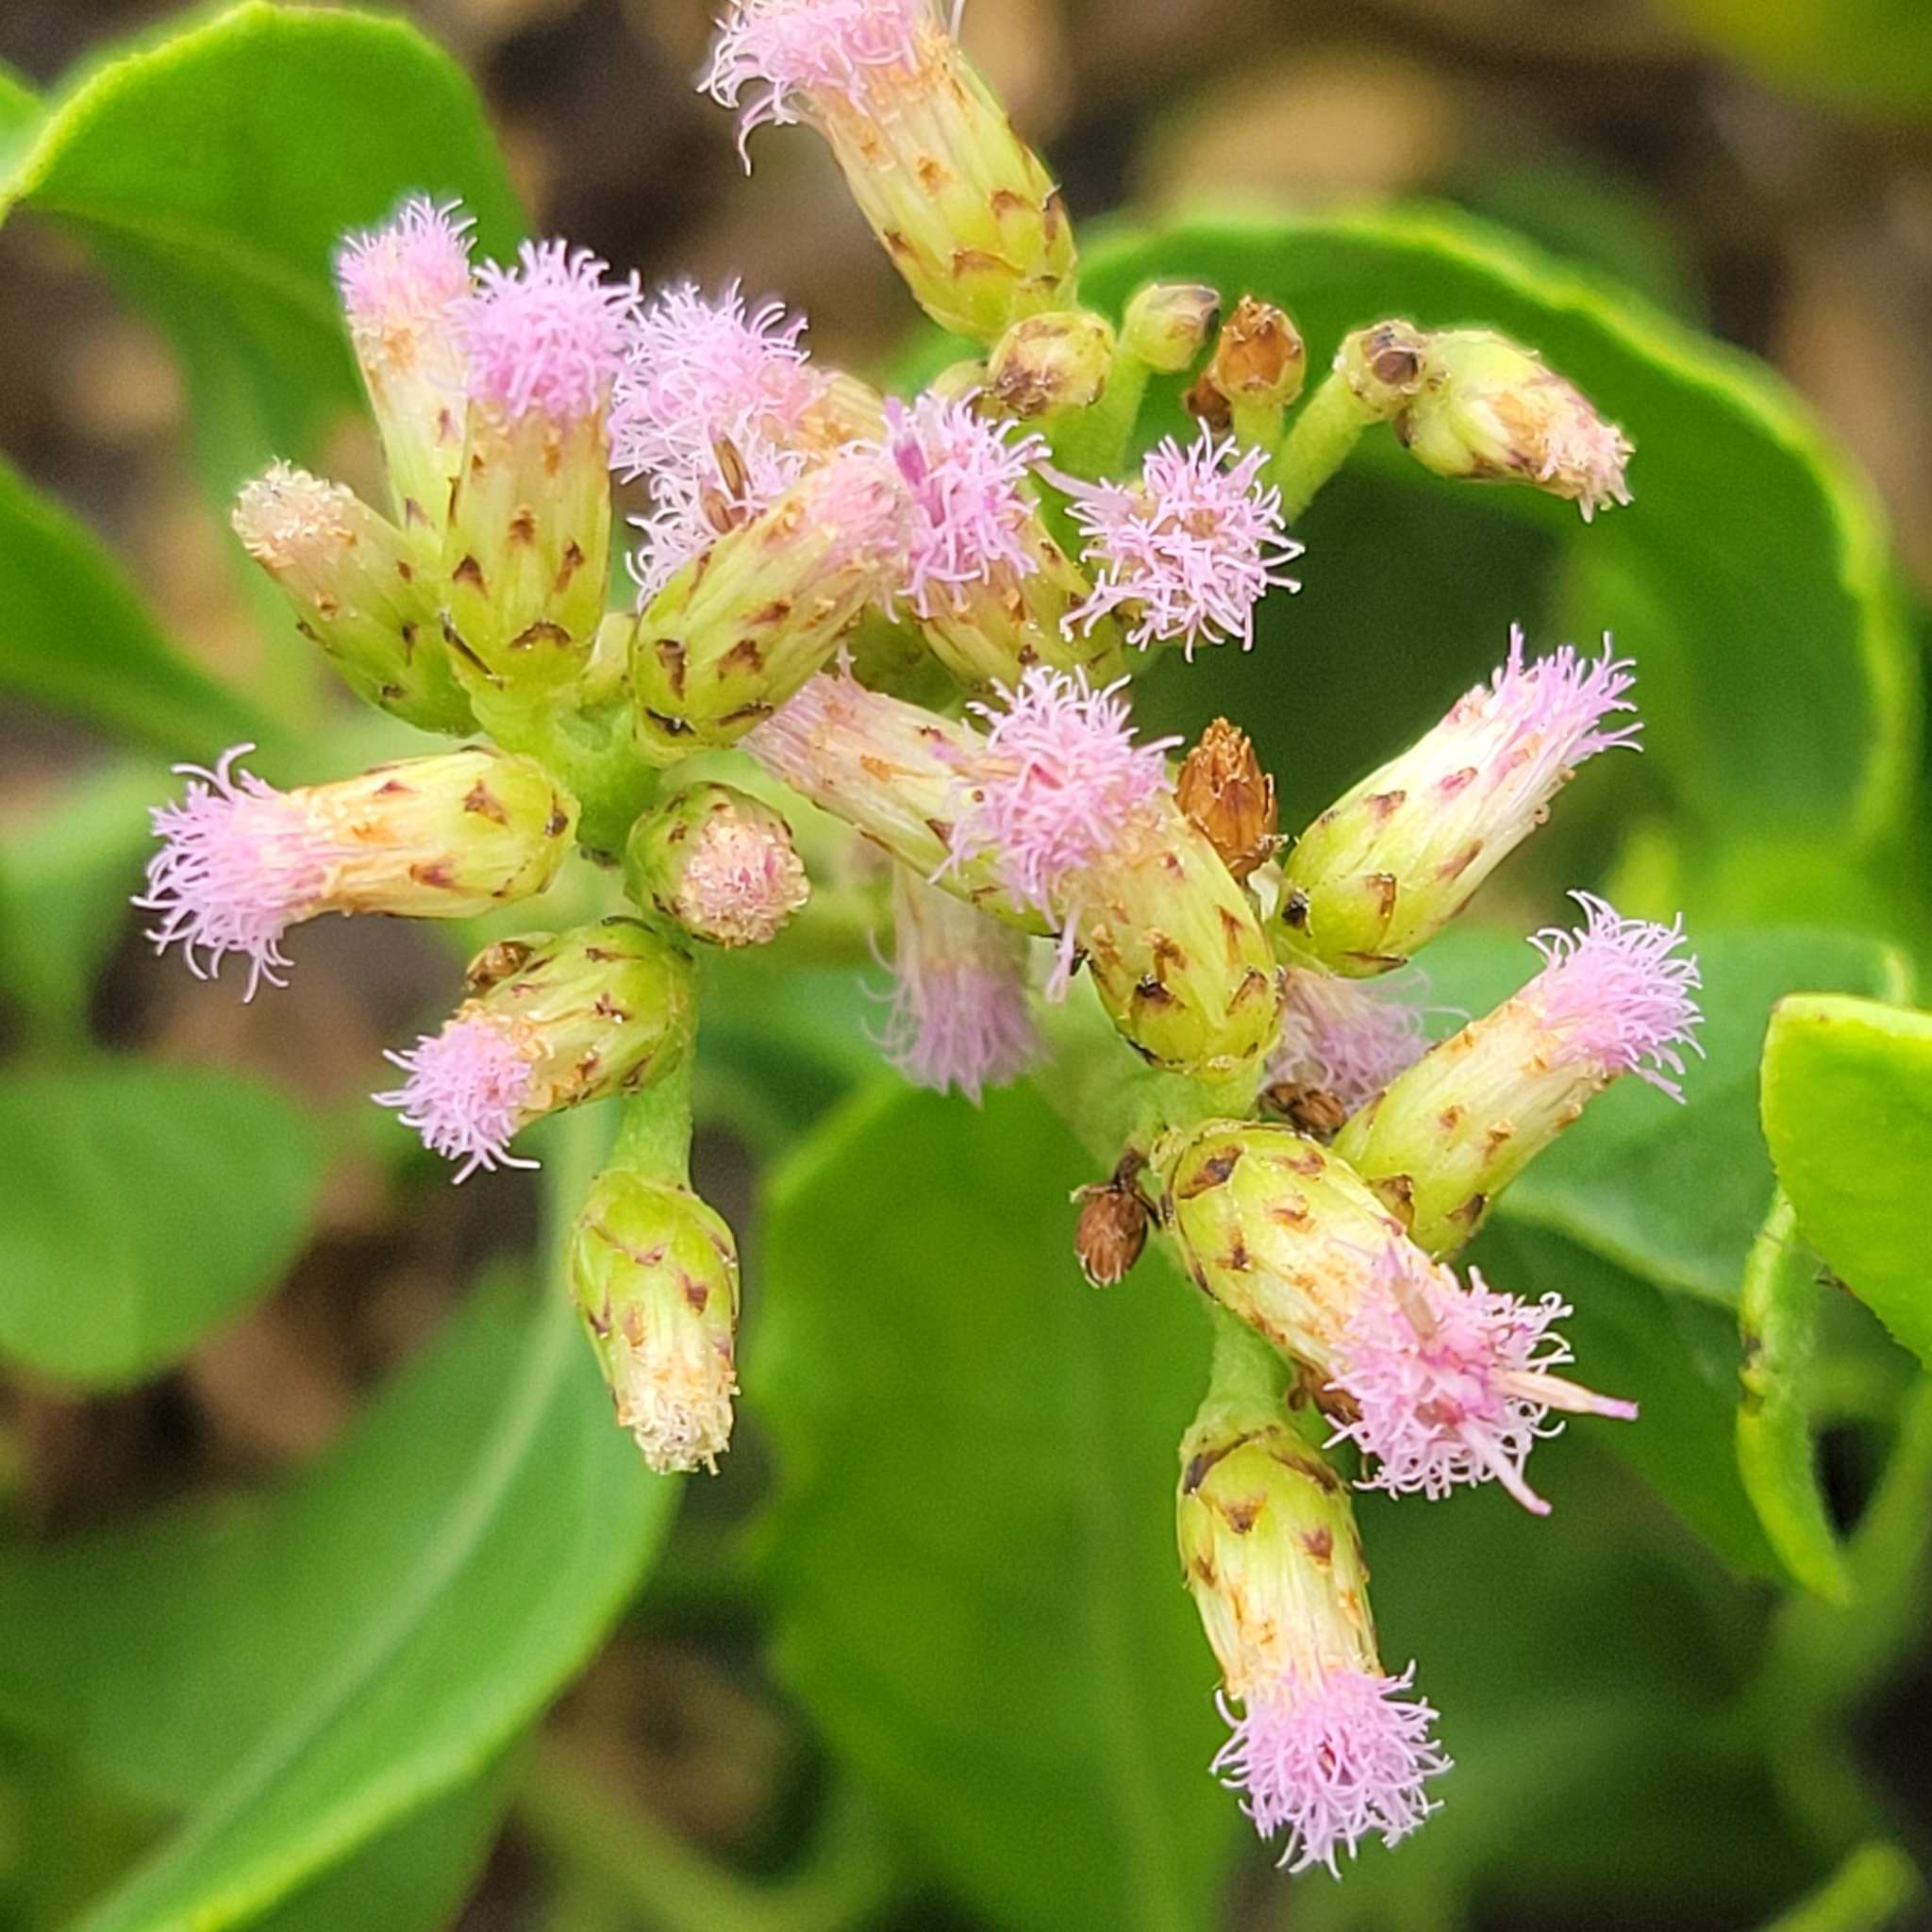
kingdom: Plantae
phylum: Tracheophyta
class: Magnoliopsida
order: Asterales
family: Asteraceae
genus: Pluchea
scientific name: Pluchea indica
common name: Indian fleabane
